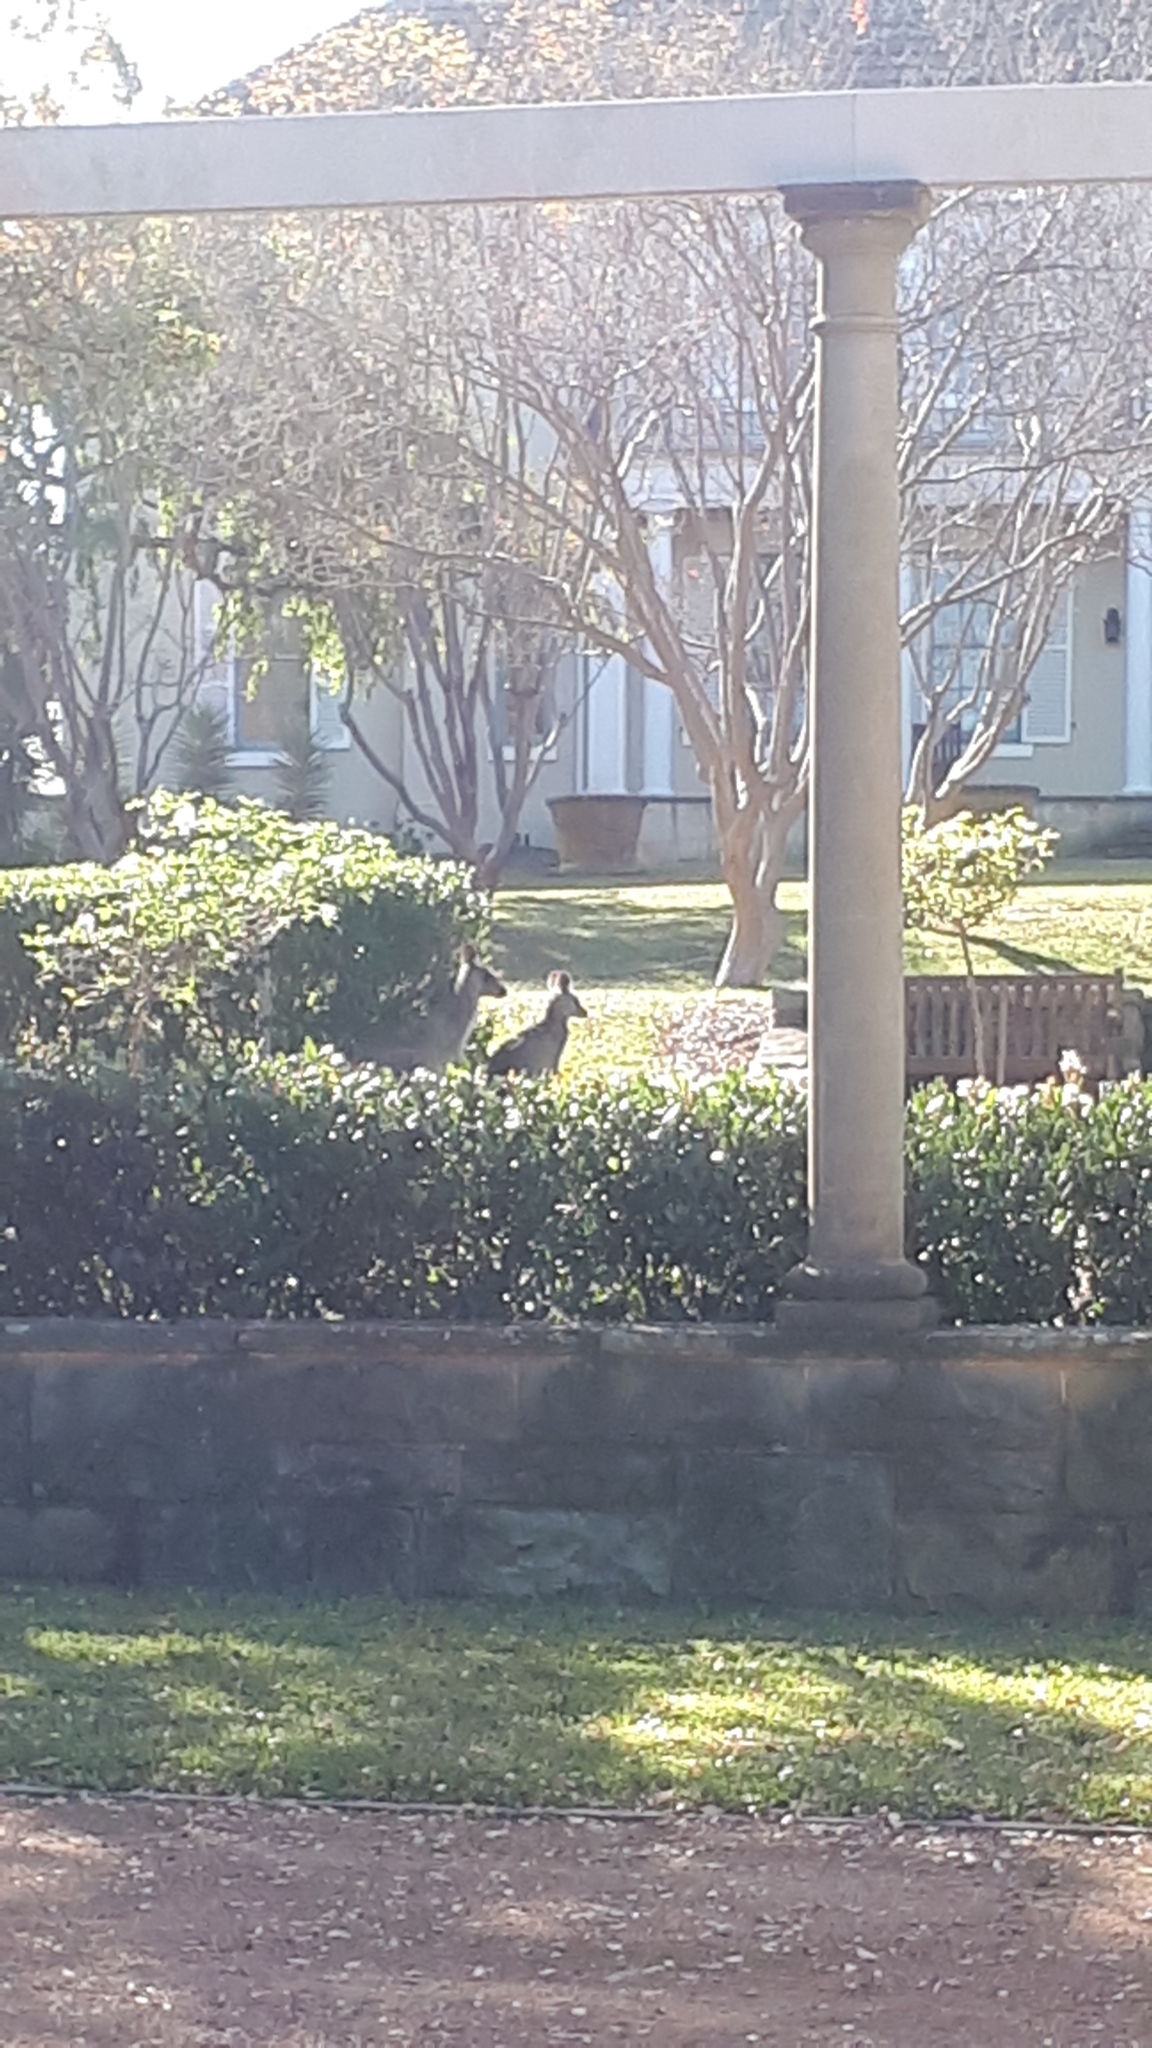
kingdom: Animalia
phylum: Chordata
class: Mammalia
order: Diprotodontia
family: Macropodidae
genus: Macropus
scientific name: Macropus giganteus
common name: Eastern grey kangaroo
